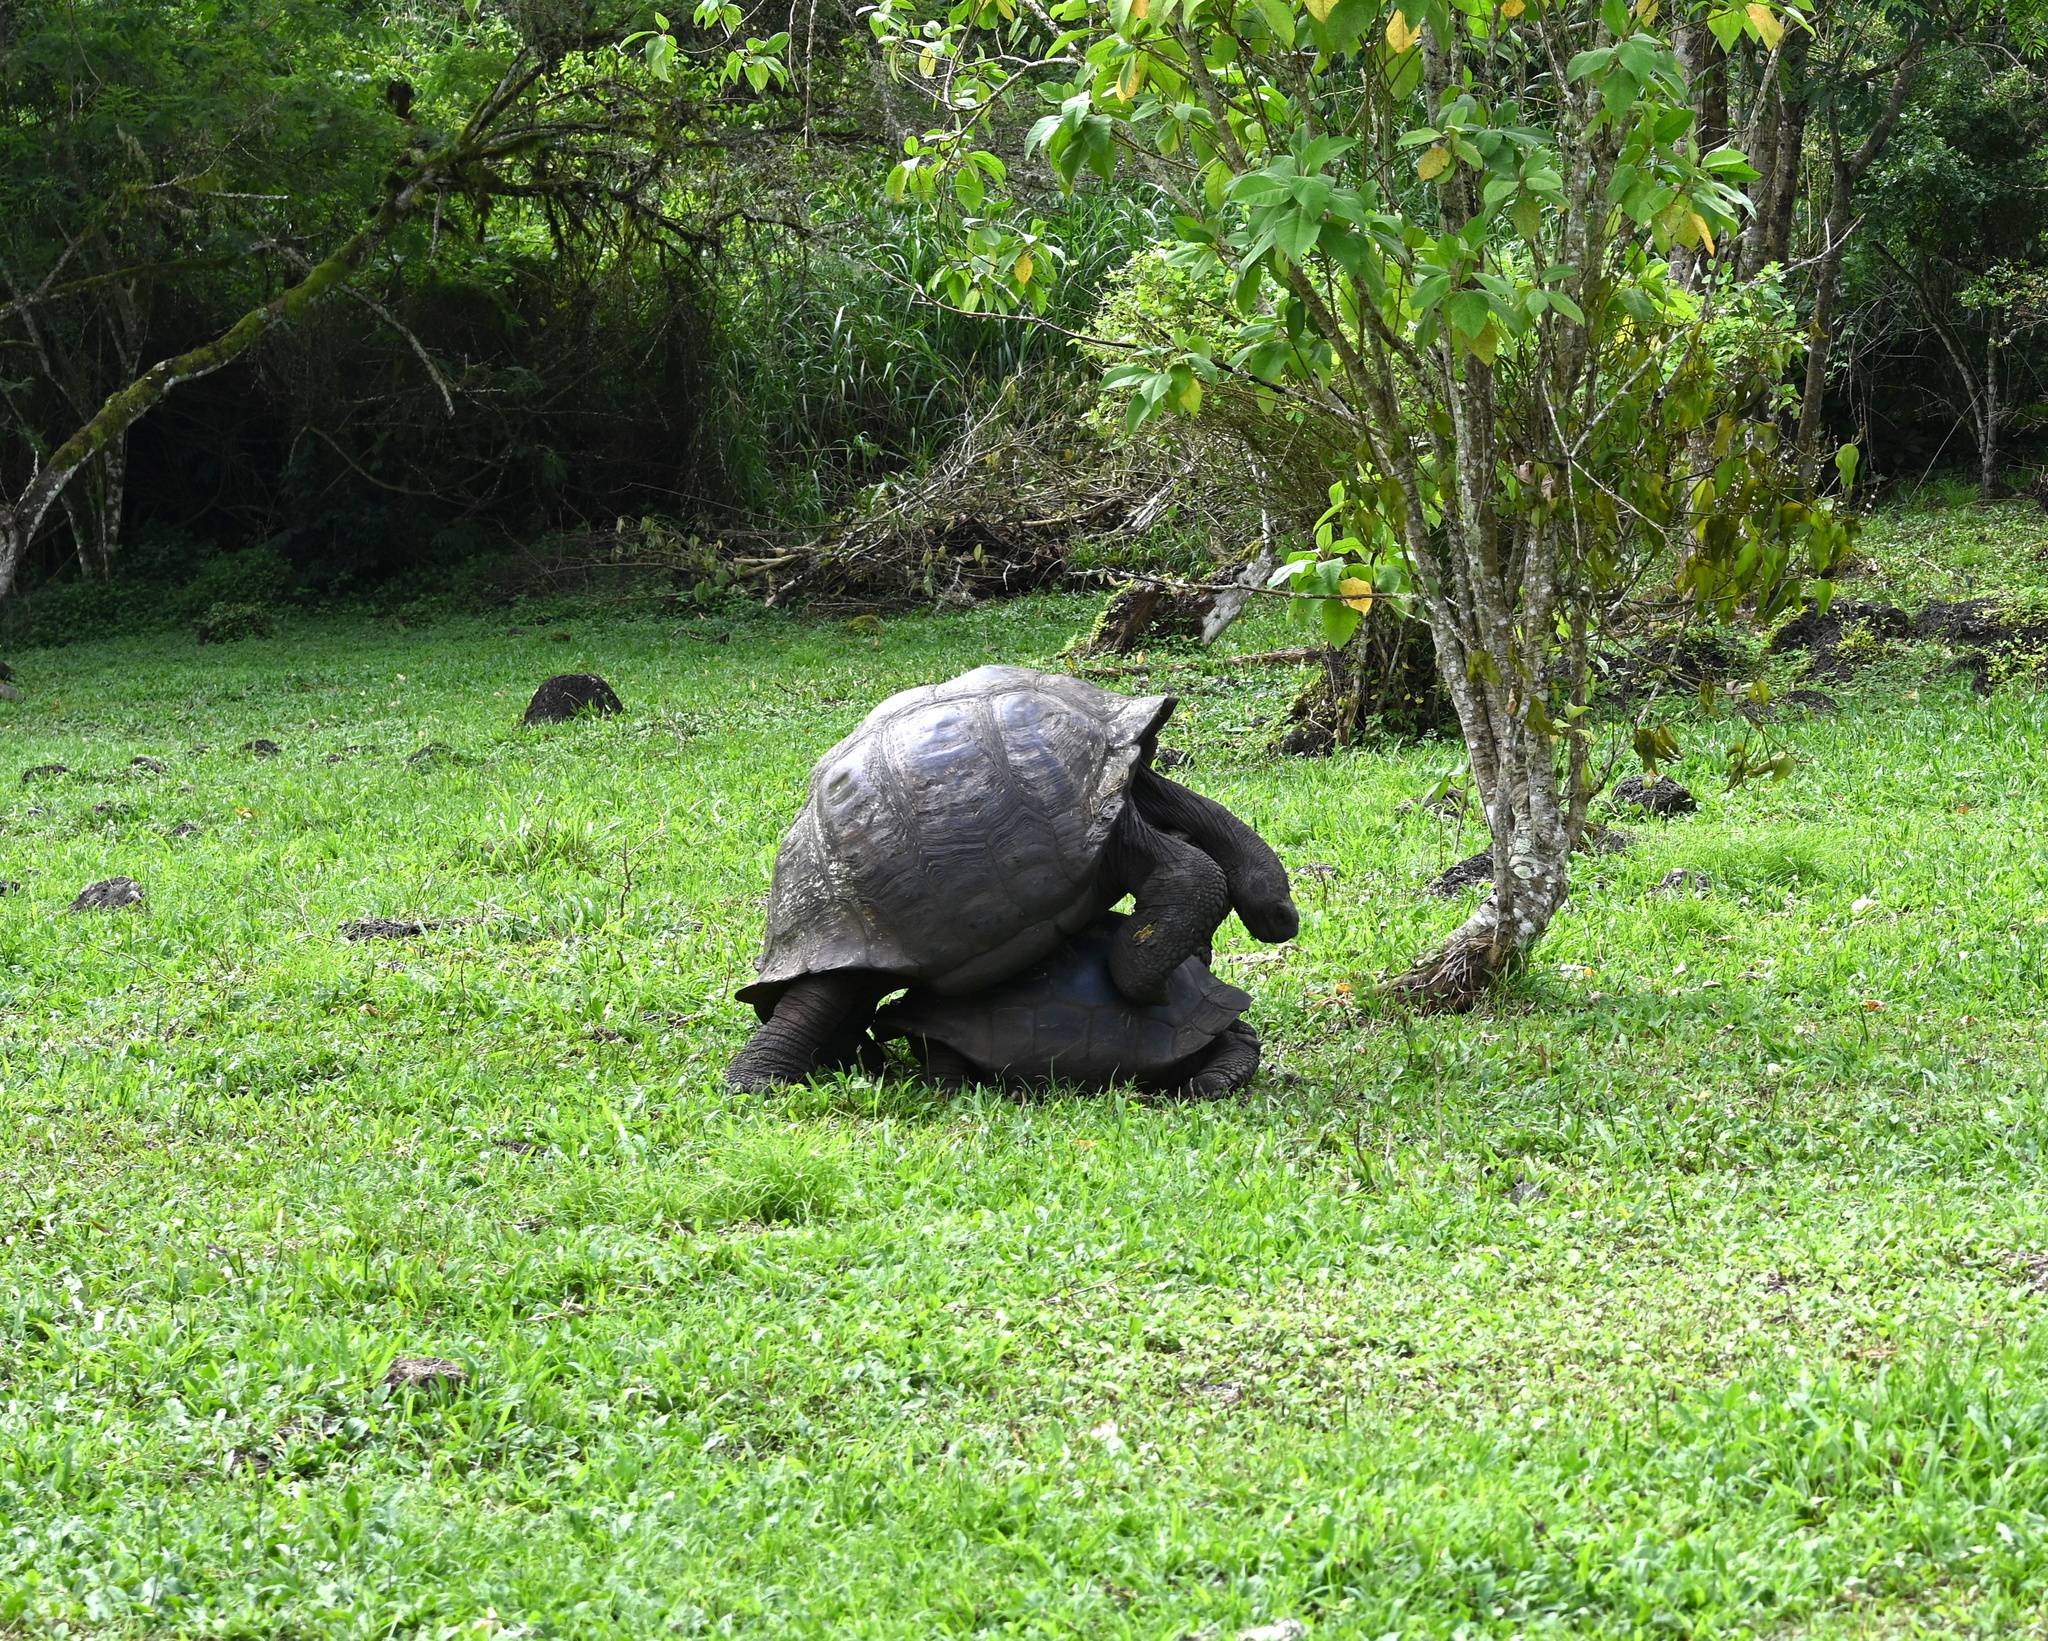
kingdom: Animalia
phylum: Chordata
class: Testudines
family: Testudinidae
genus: Chelonoidis
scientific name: Chelonoidis niger
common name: Charles island giant tortoise
